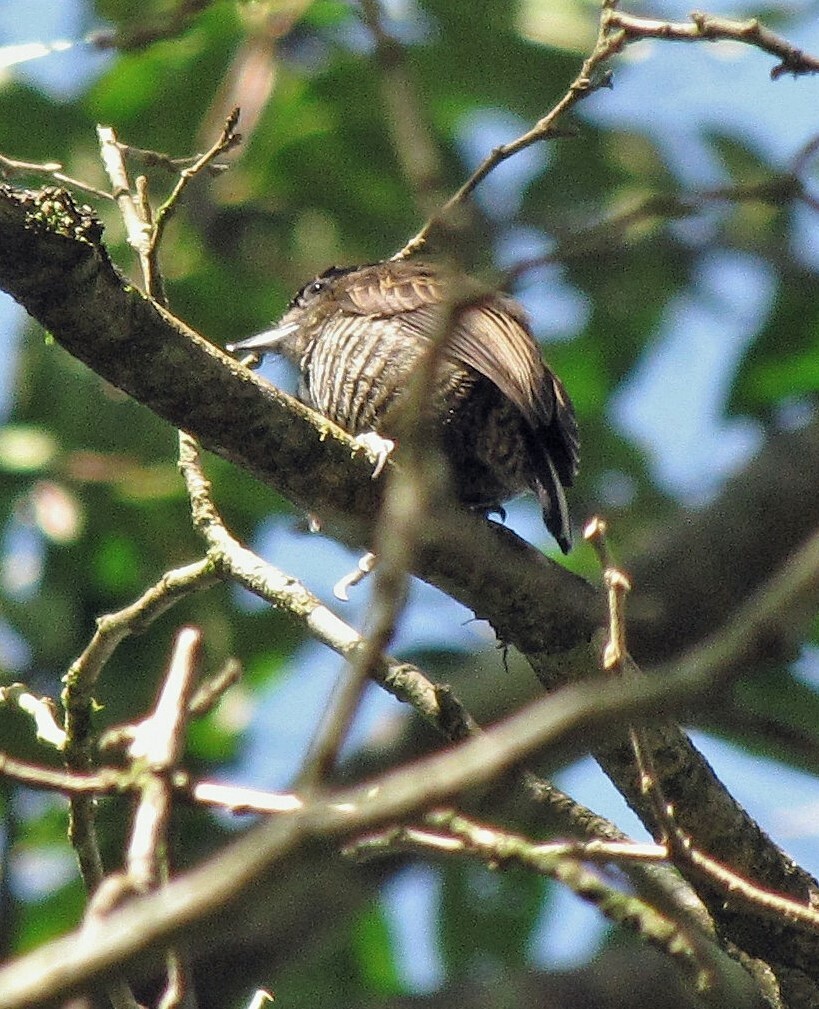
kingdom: Animalia
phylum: Chordata
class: Aves
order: Piciformes
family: Picidae
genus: Picumnus
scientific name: Picumnus temminckii
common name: Ochre-collared piculet
